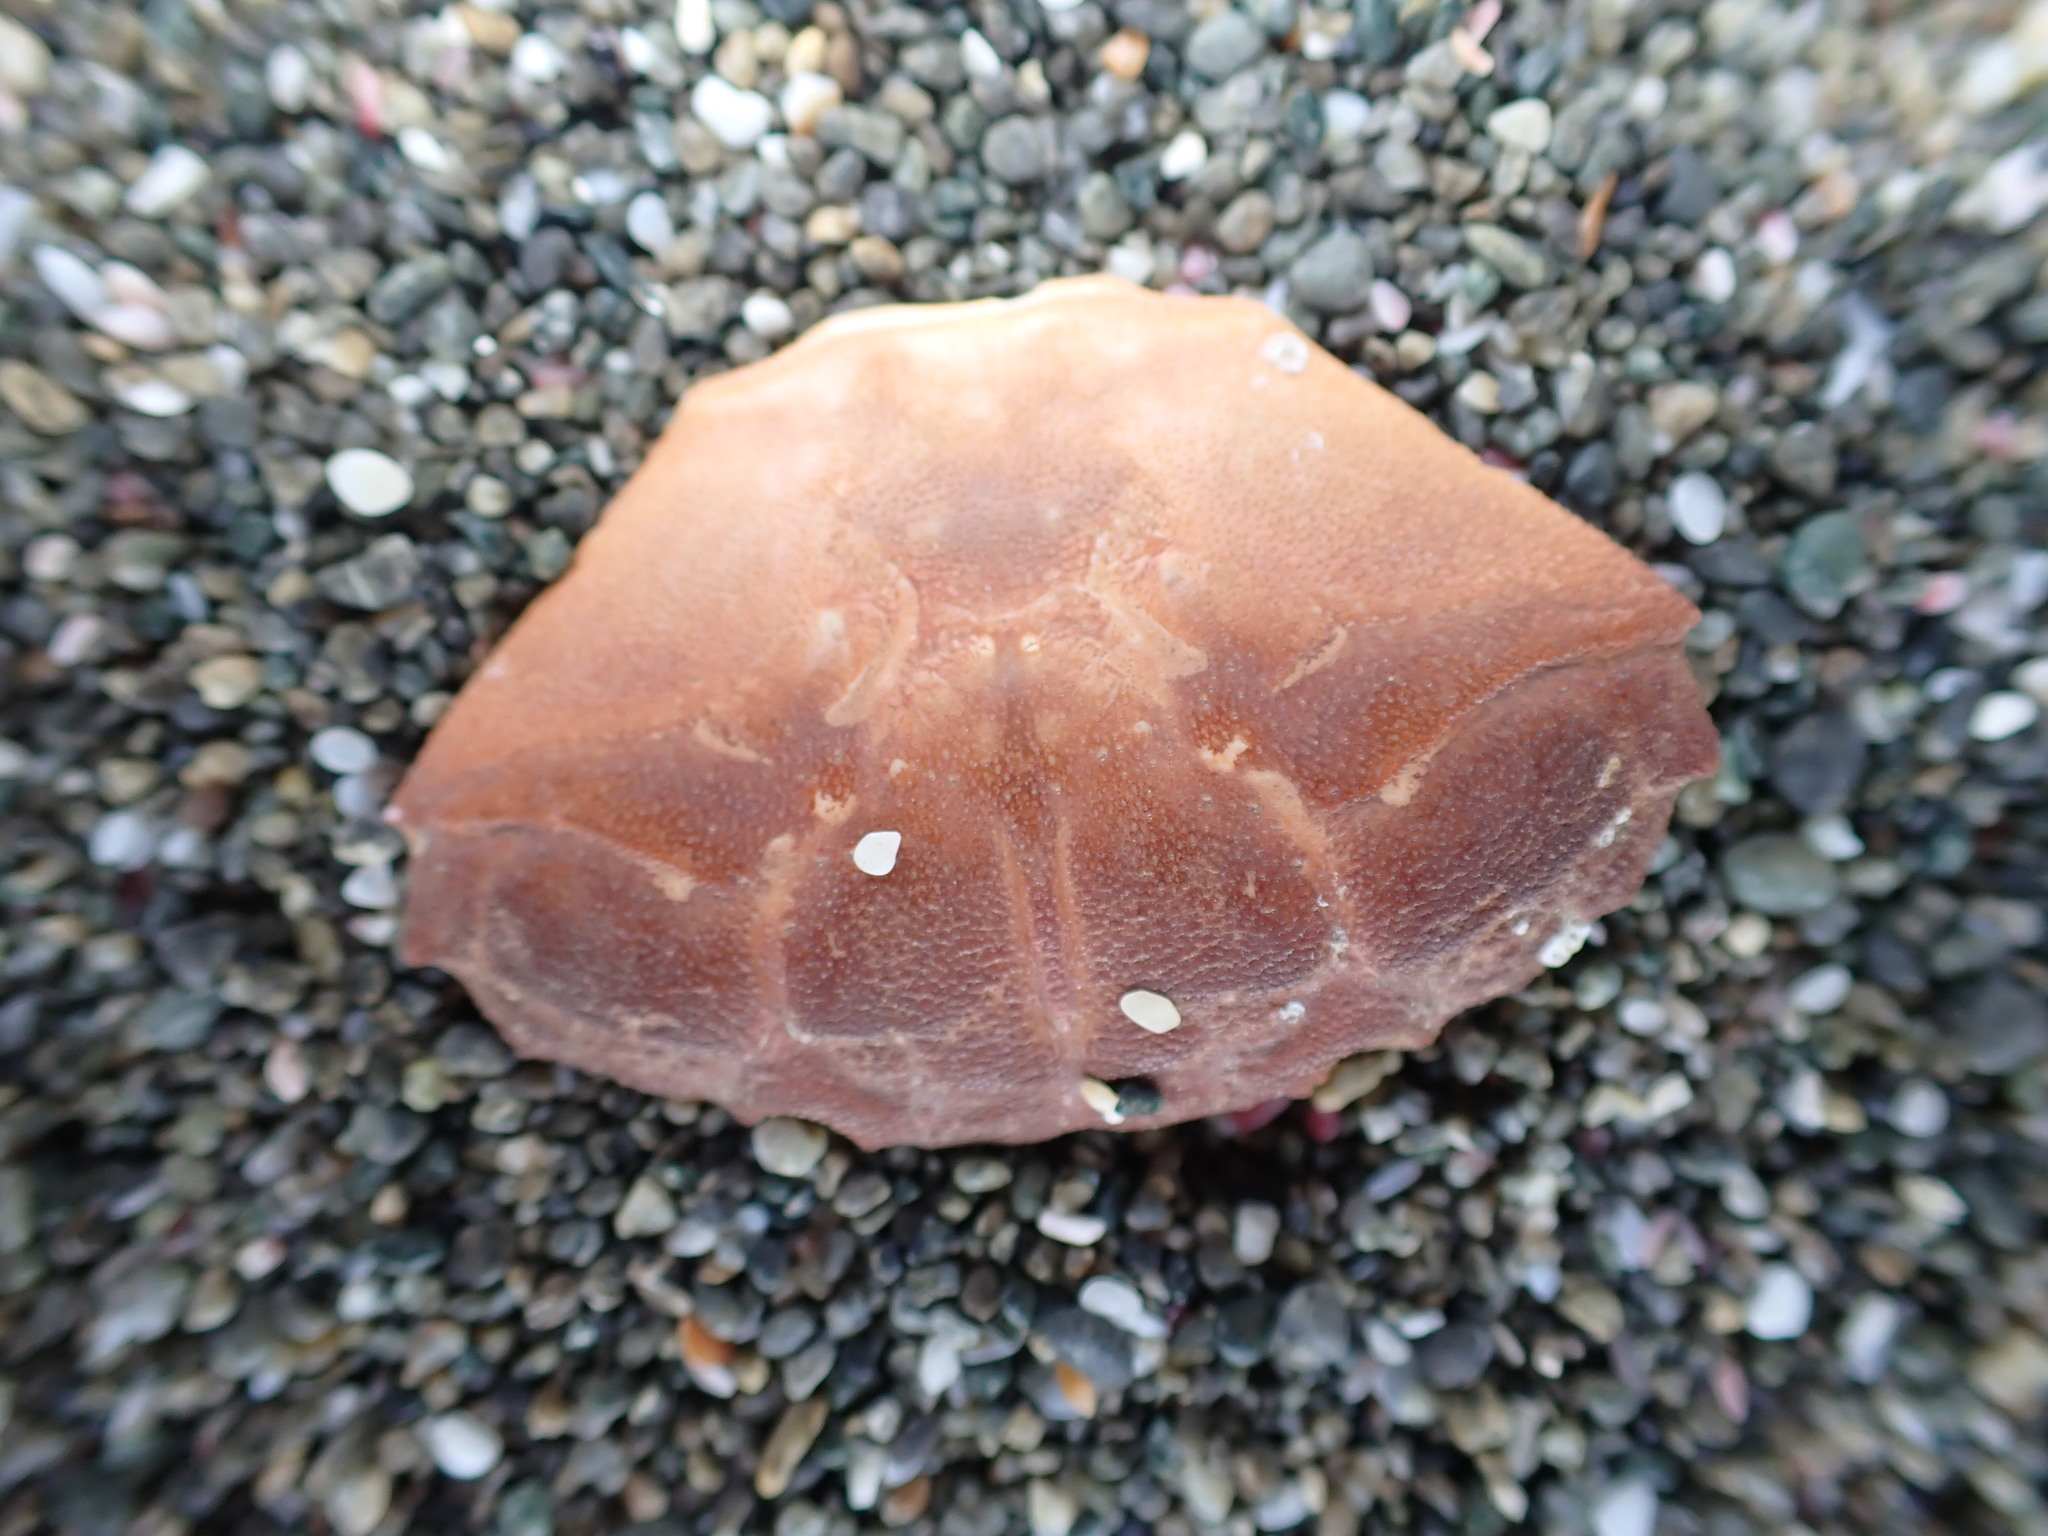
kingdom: Animalia
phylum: Arthropoda
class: Malacostraca
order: Decapoda
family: Oziidae
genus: Ozius
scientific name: Ozius deplanatus
